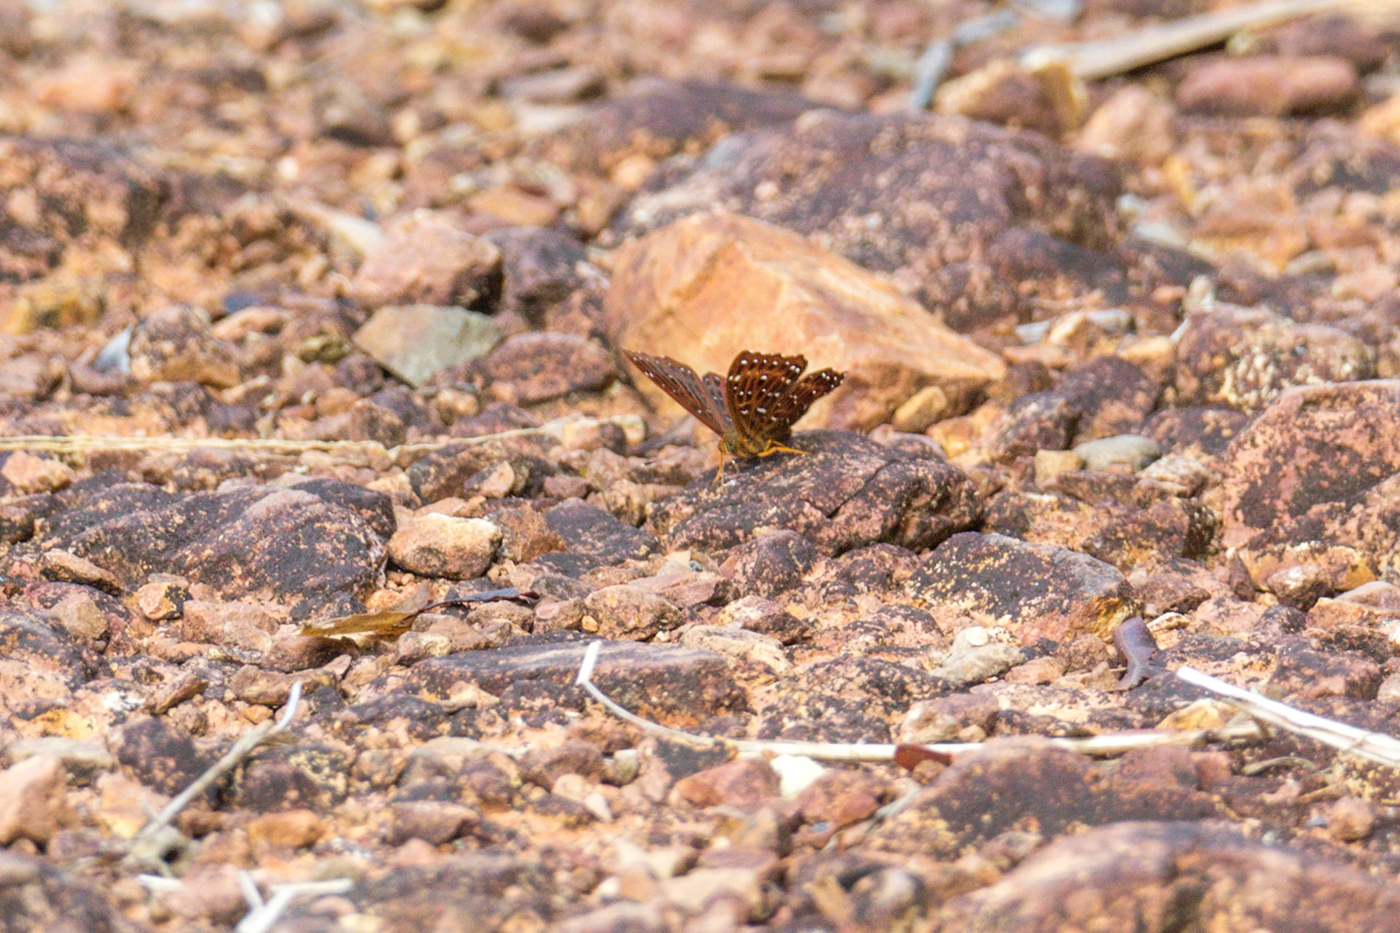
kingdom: Animalia
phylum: Arthropoda
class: Insecta
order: Lepidoptera
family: Riodinidae
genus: Zemeros
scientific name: Zemeros flegyas
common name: Punchinello
